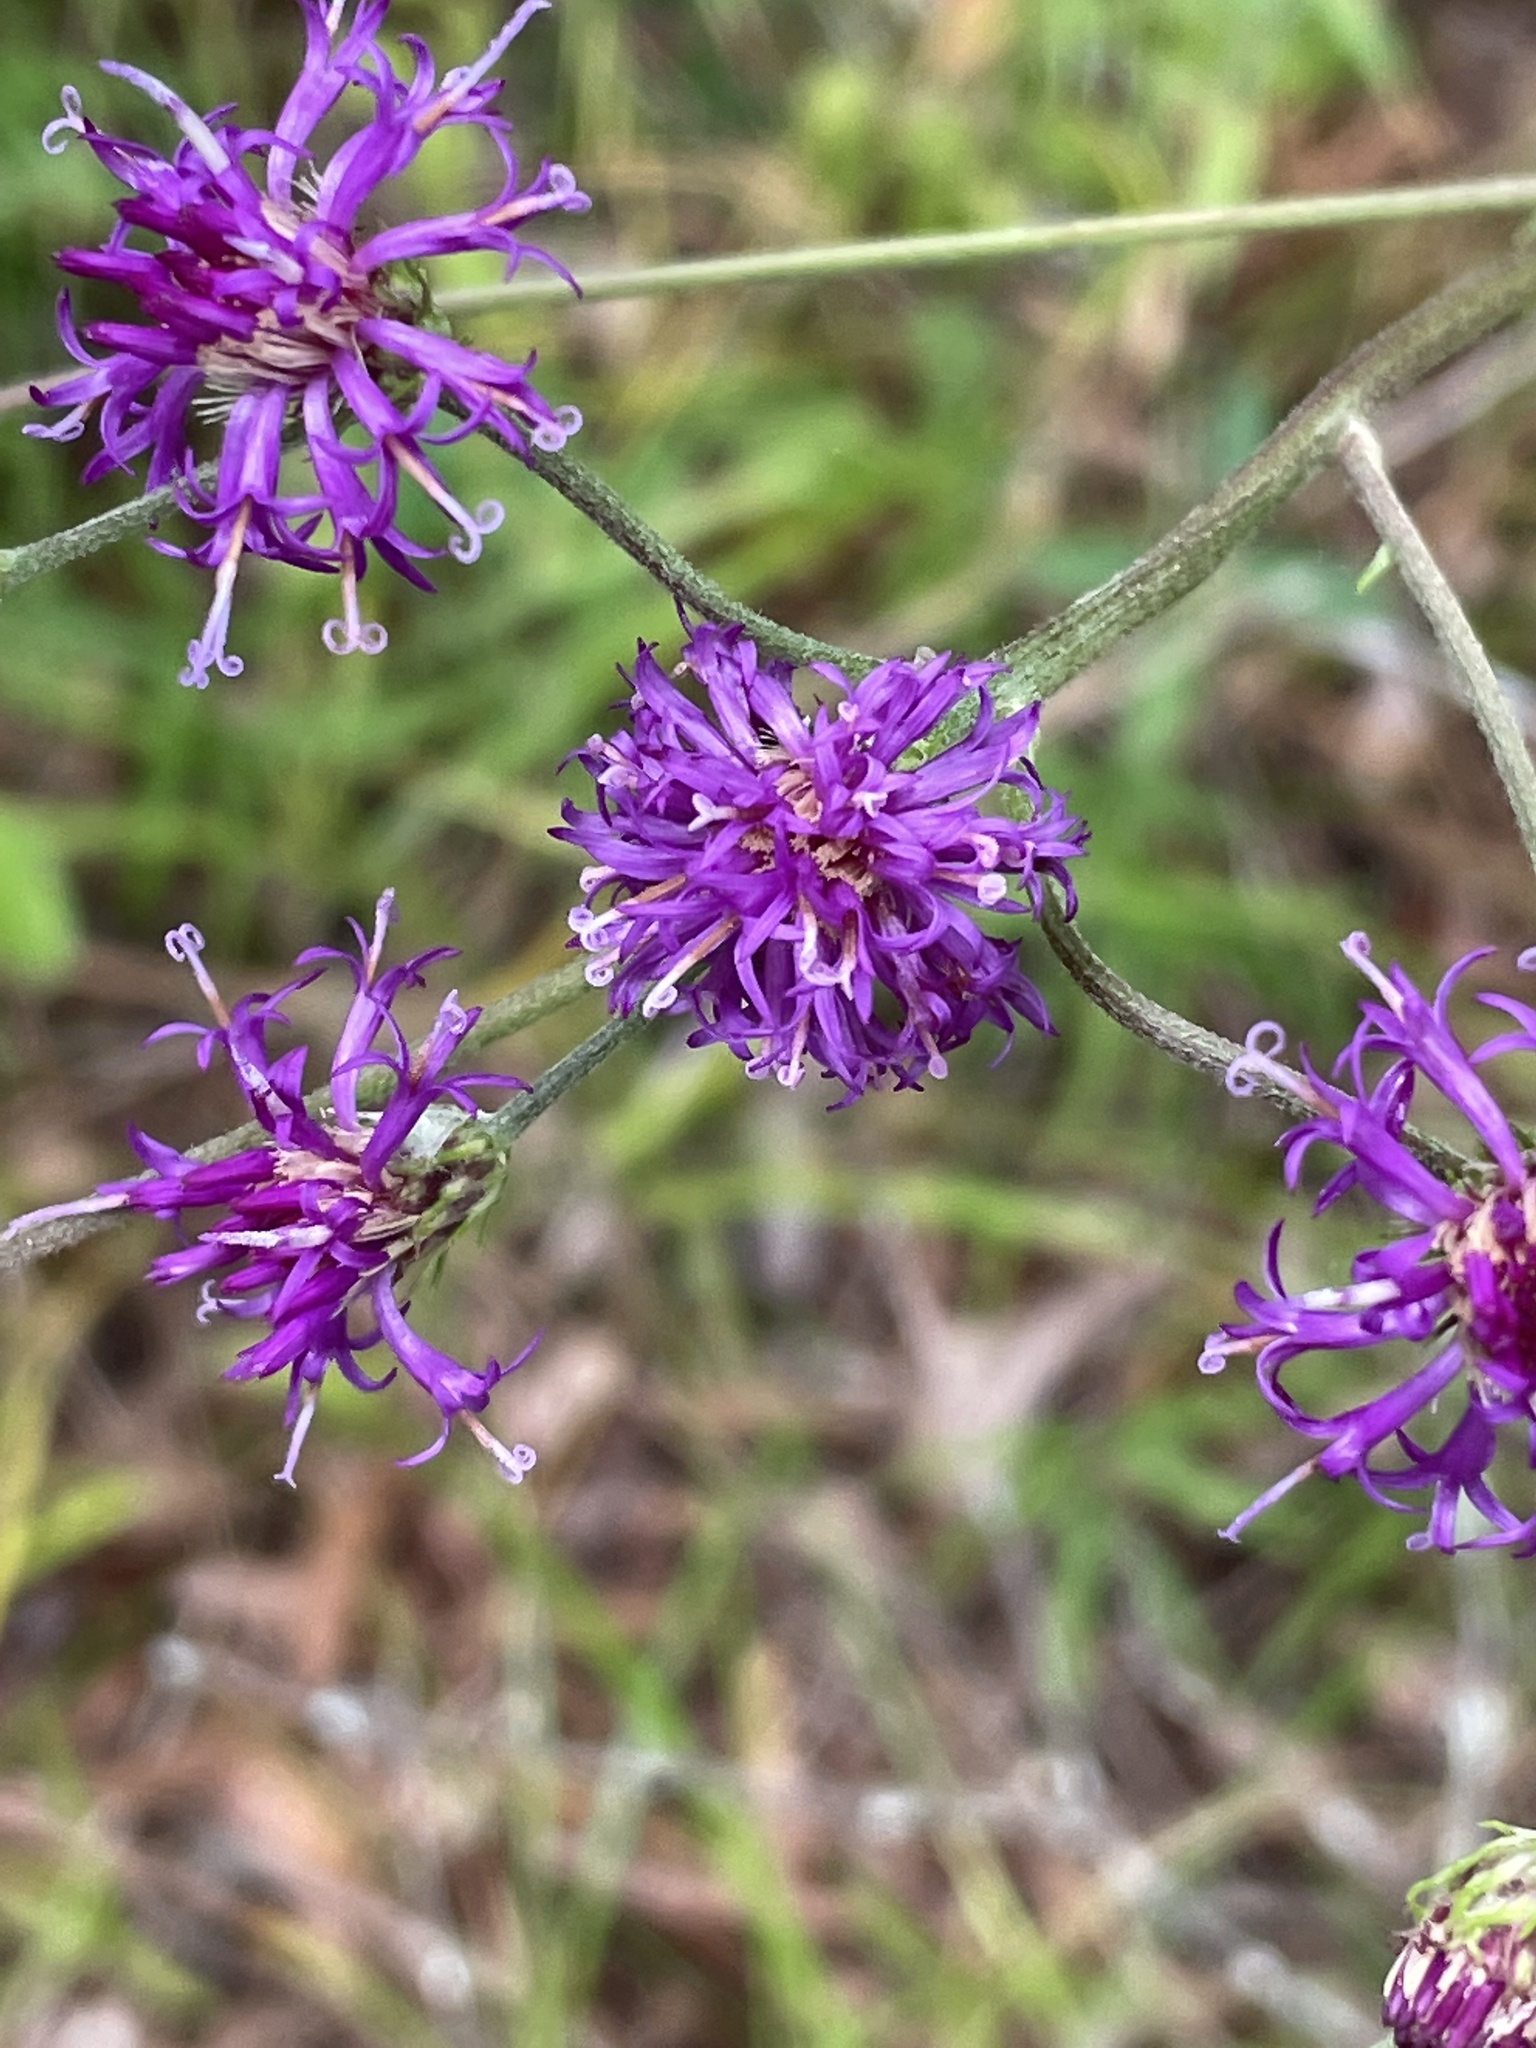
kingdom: Plantae
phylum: Tracheophyta
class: Magnoliopsida
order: Asterales
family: Asteraceae
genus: Vernonia
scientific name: Vernonia acaulis
